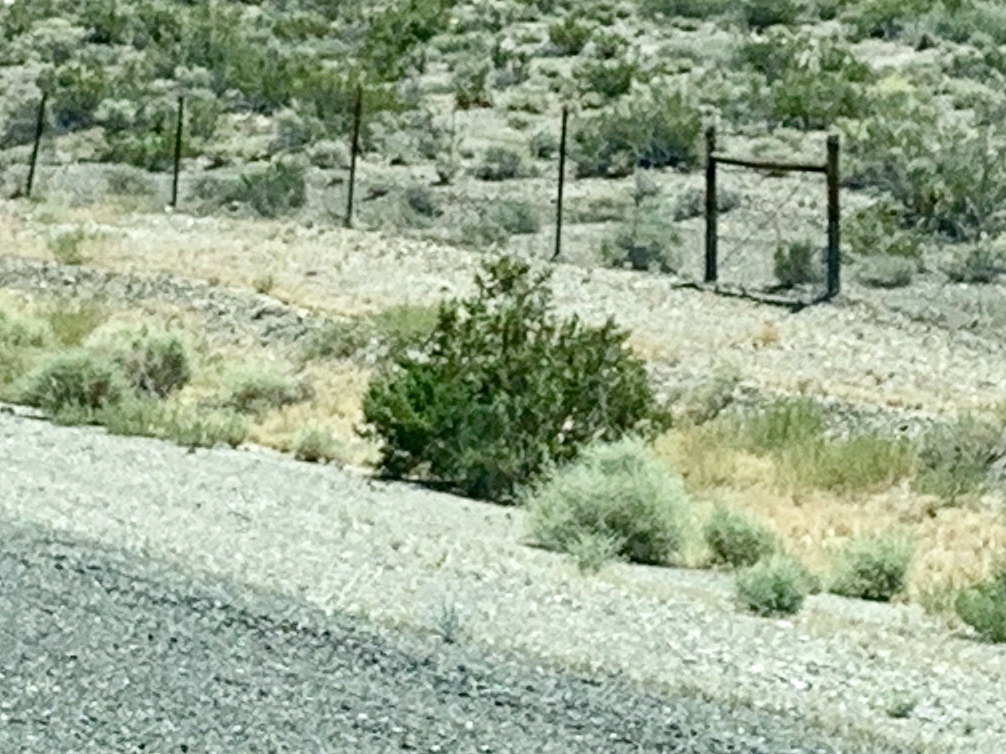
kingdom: Plantae
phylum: Tracheophyta
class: Magnoliopsida
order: Zygophyllales
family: Zygophyllaceae
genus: Larrea
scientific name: Larrea tridentata
